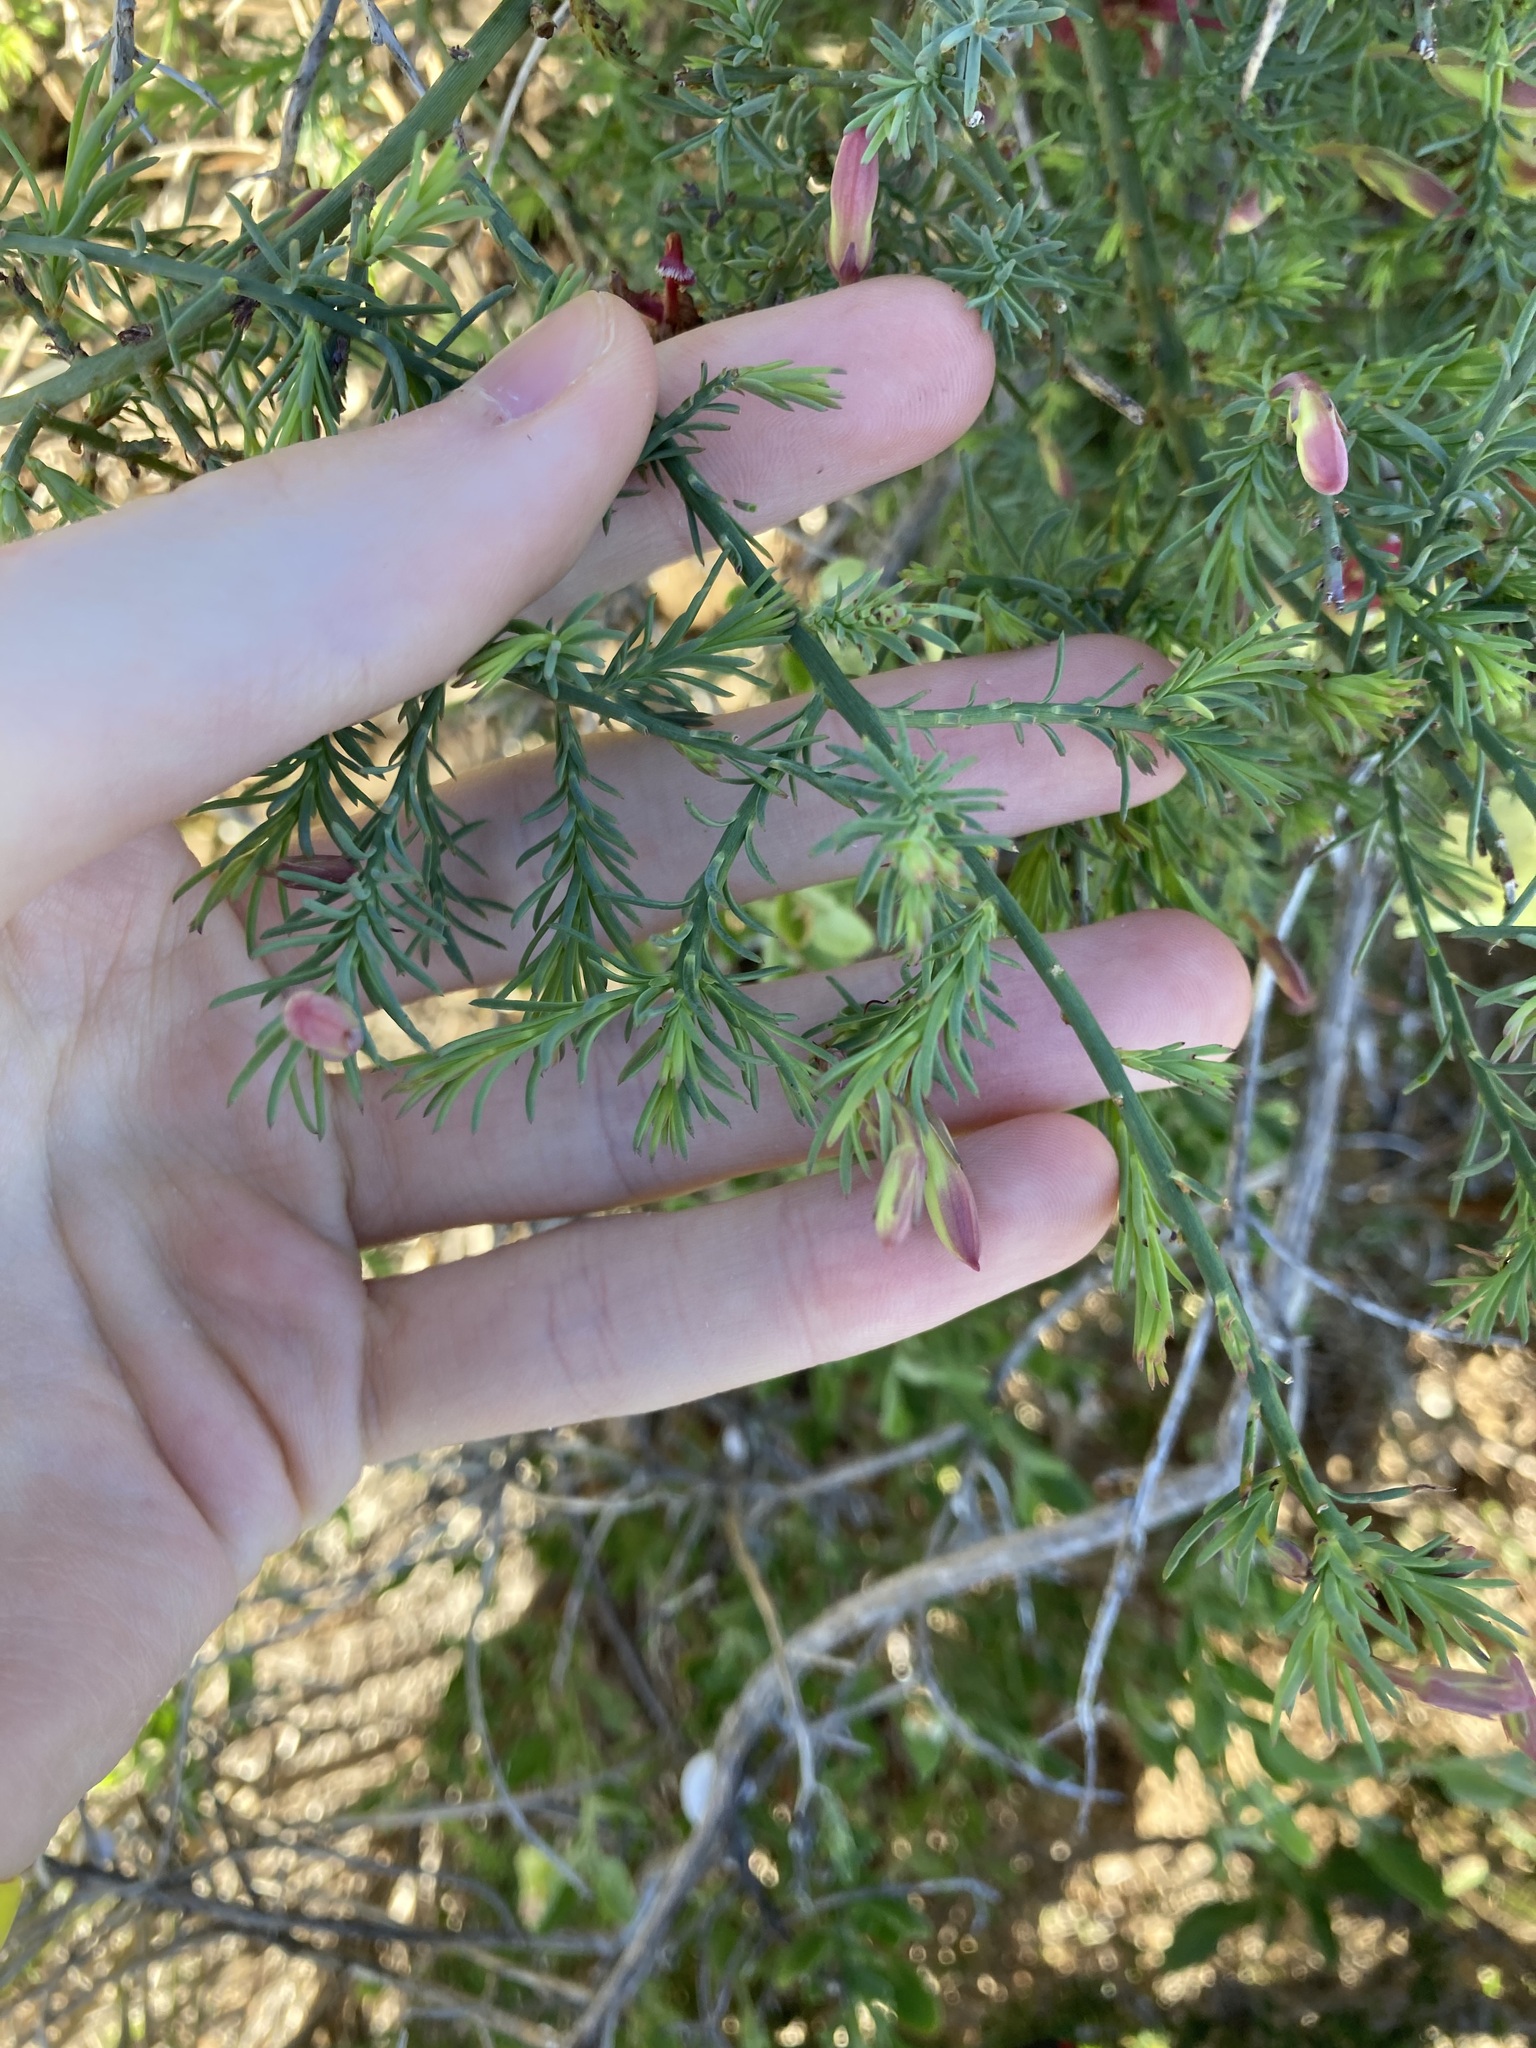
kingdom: Plantae
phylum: Tracheophyta
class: Magnoliopsida
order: Asterales
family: Goodeniaceae
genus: Lechenaultia
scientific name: Lechenaultia linarioides
